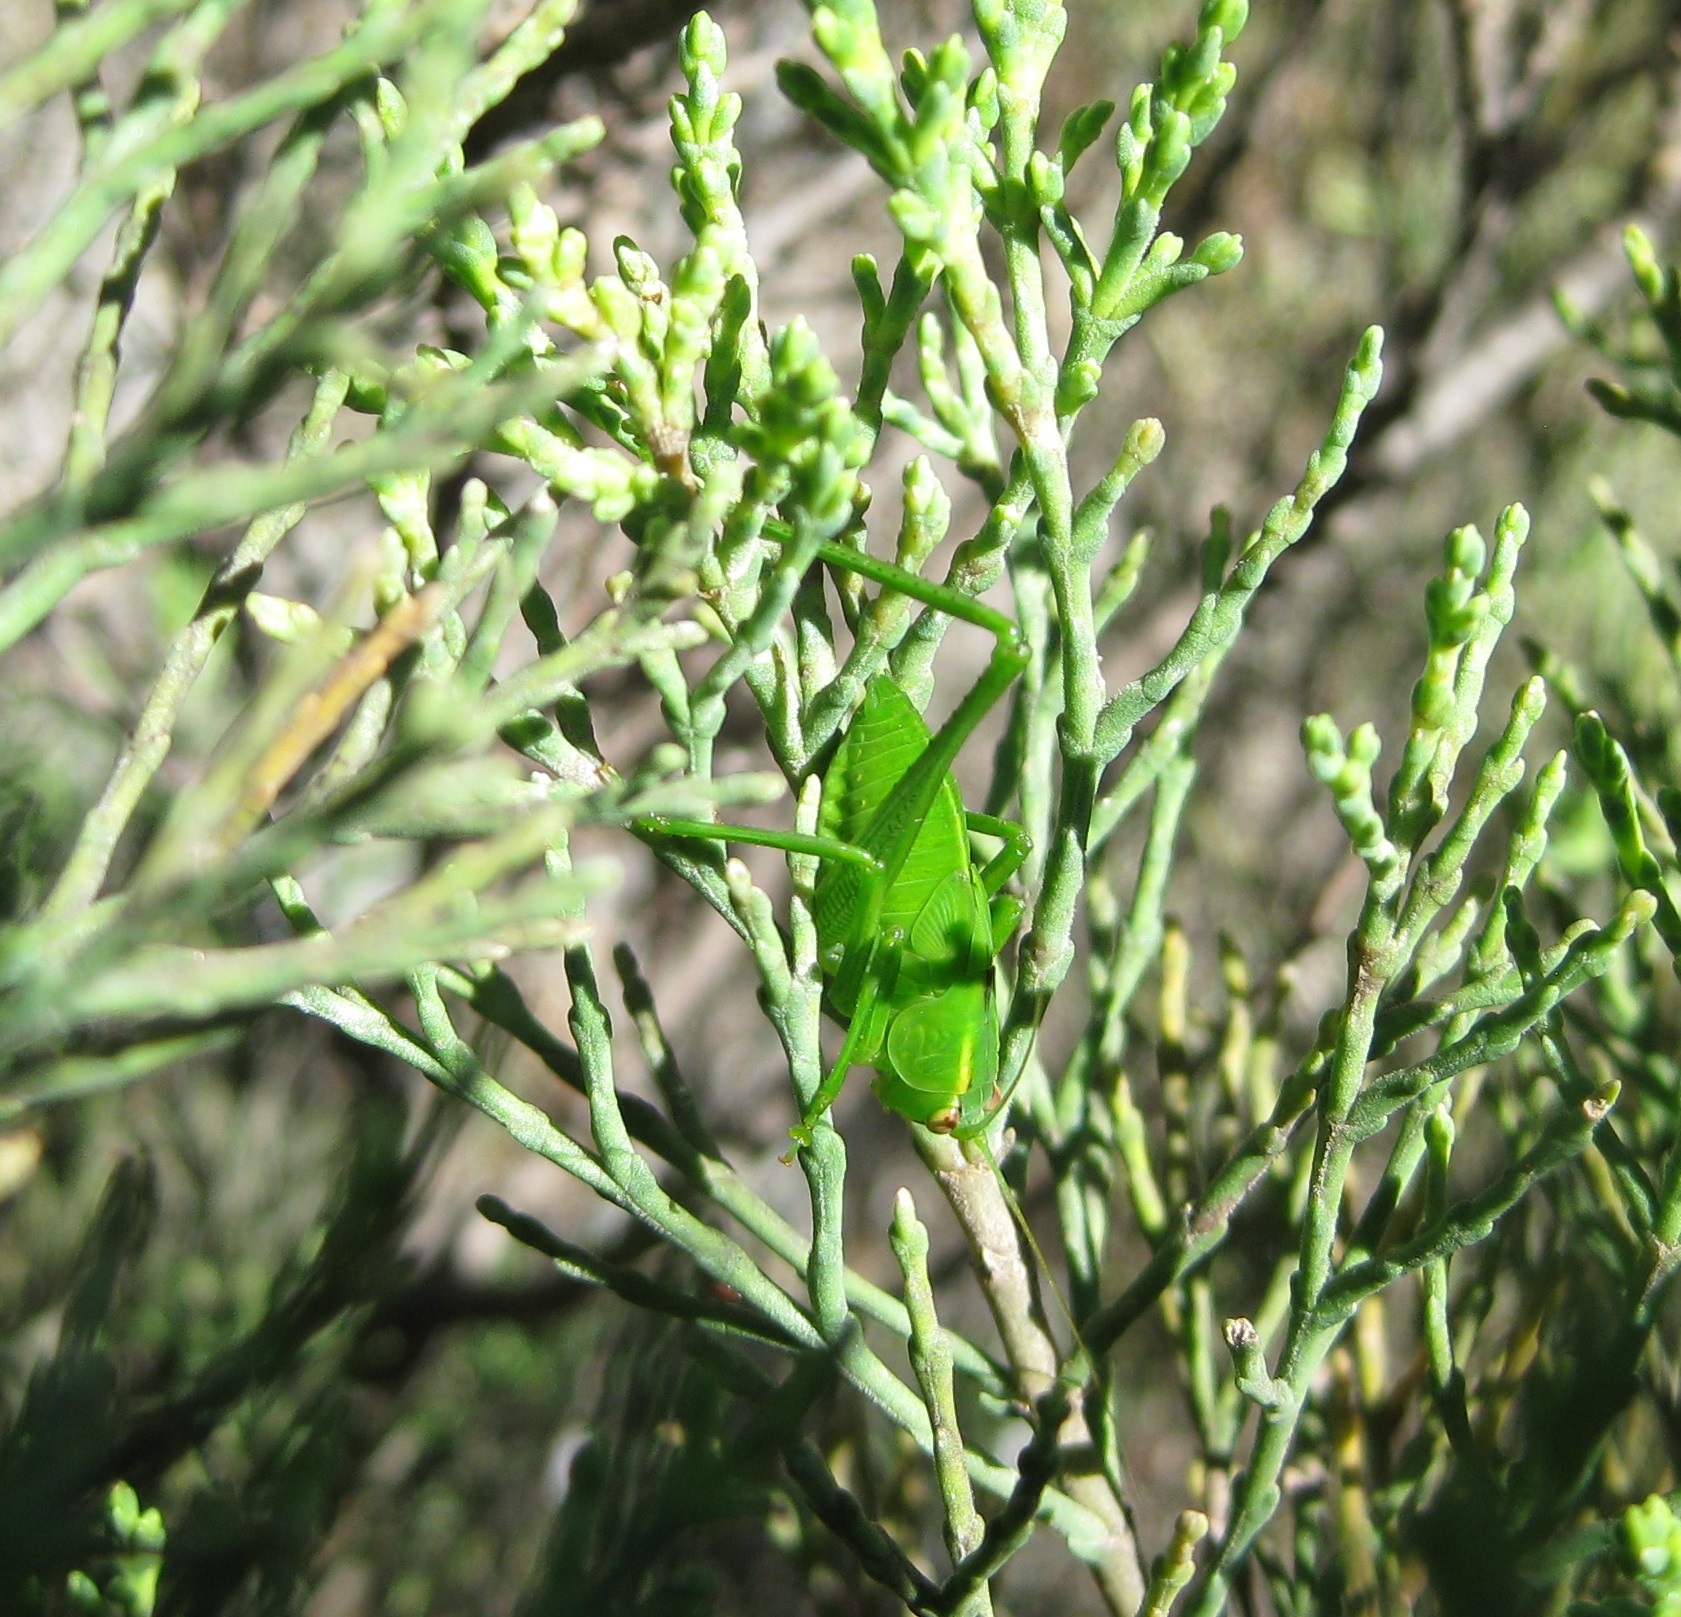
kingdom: Animalia
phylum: Arthropoda
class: Insecta
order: Orthoptera
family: Tettigoniidae
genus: Caedicia
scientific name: Caedicia simplex
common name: Common garden katydid
